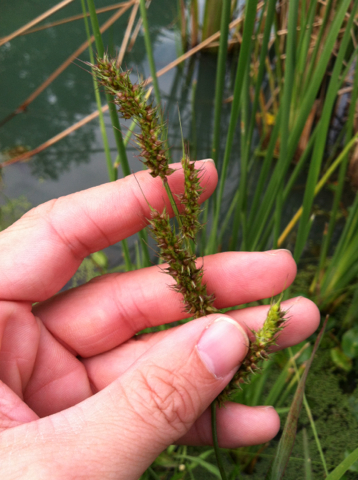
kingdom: Plantae
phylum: Tracheophyta
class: Liliopsida
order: Poales
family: Poaceae
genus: Echinochloa
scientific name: Echinochloa crus-galli
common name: Cockspur
